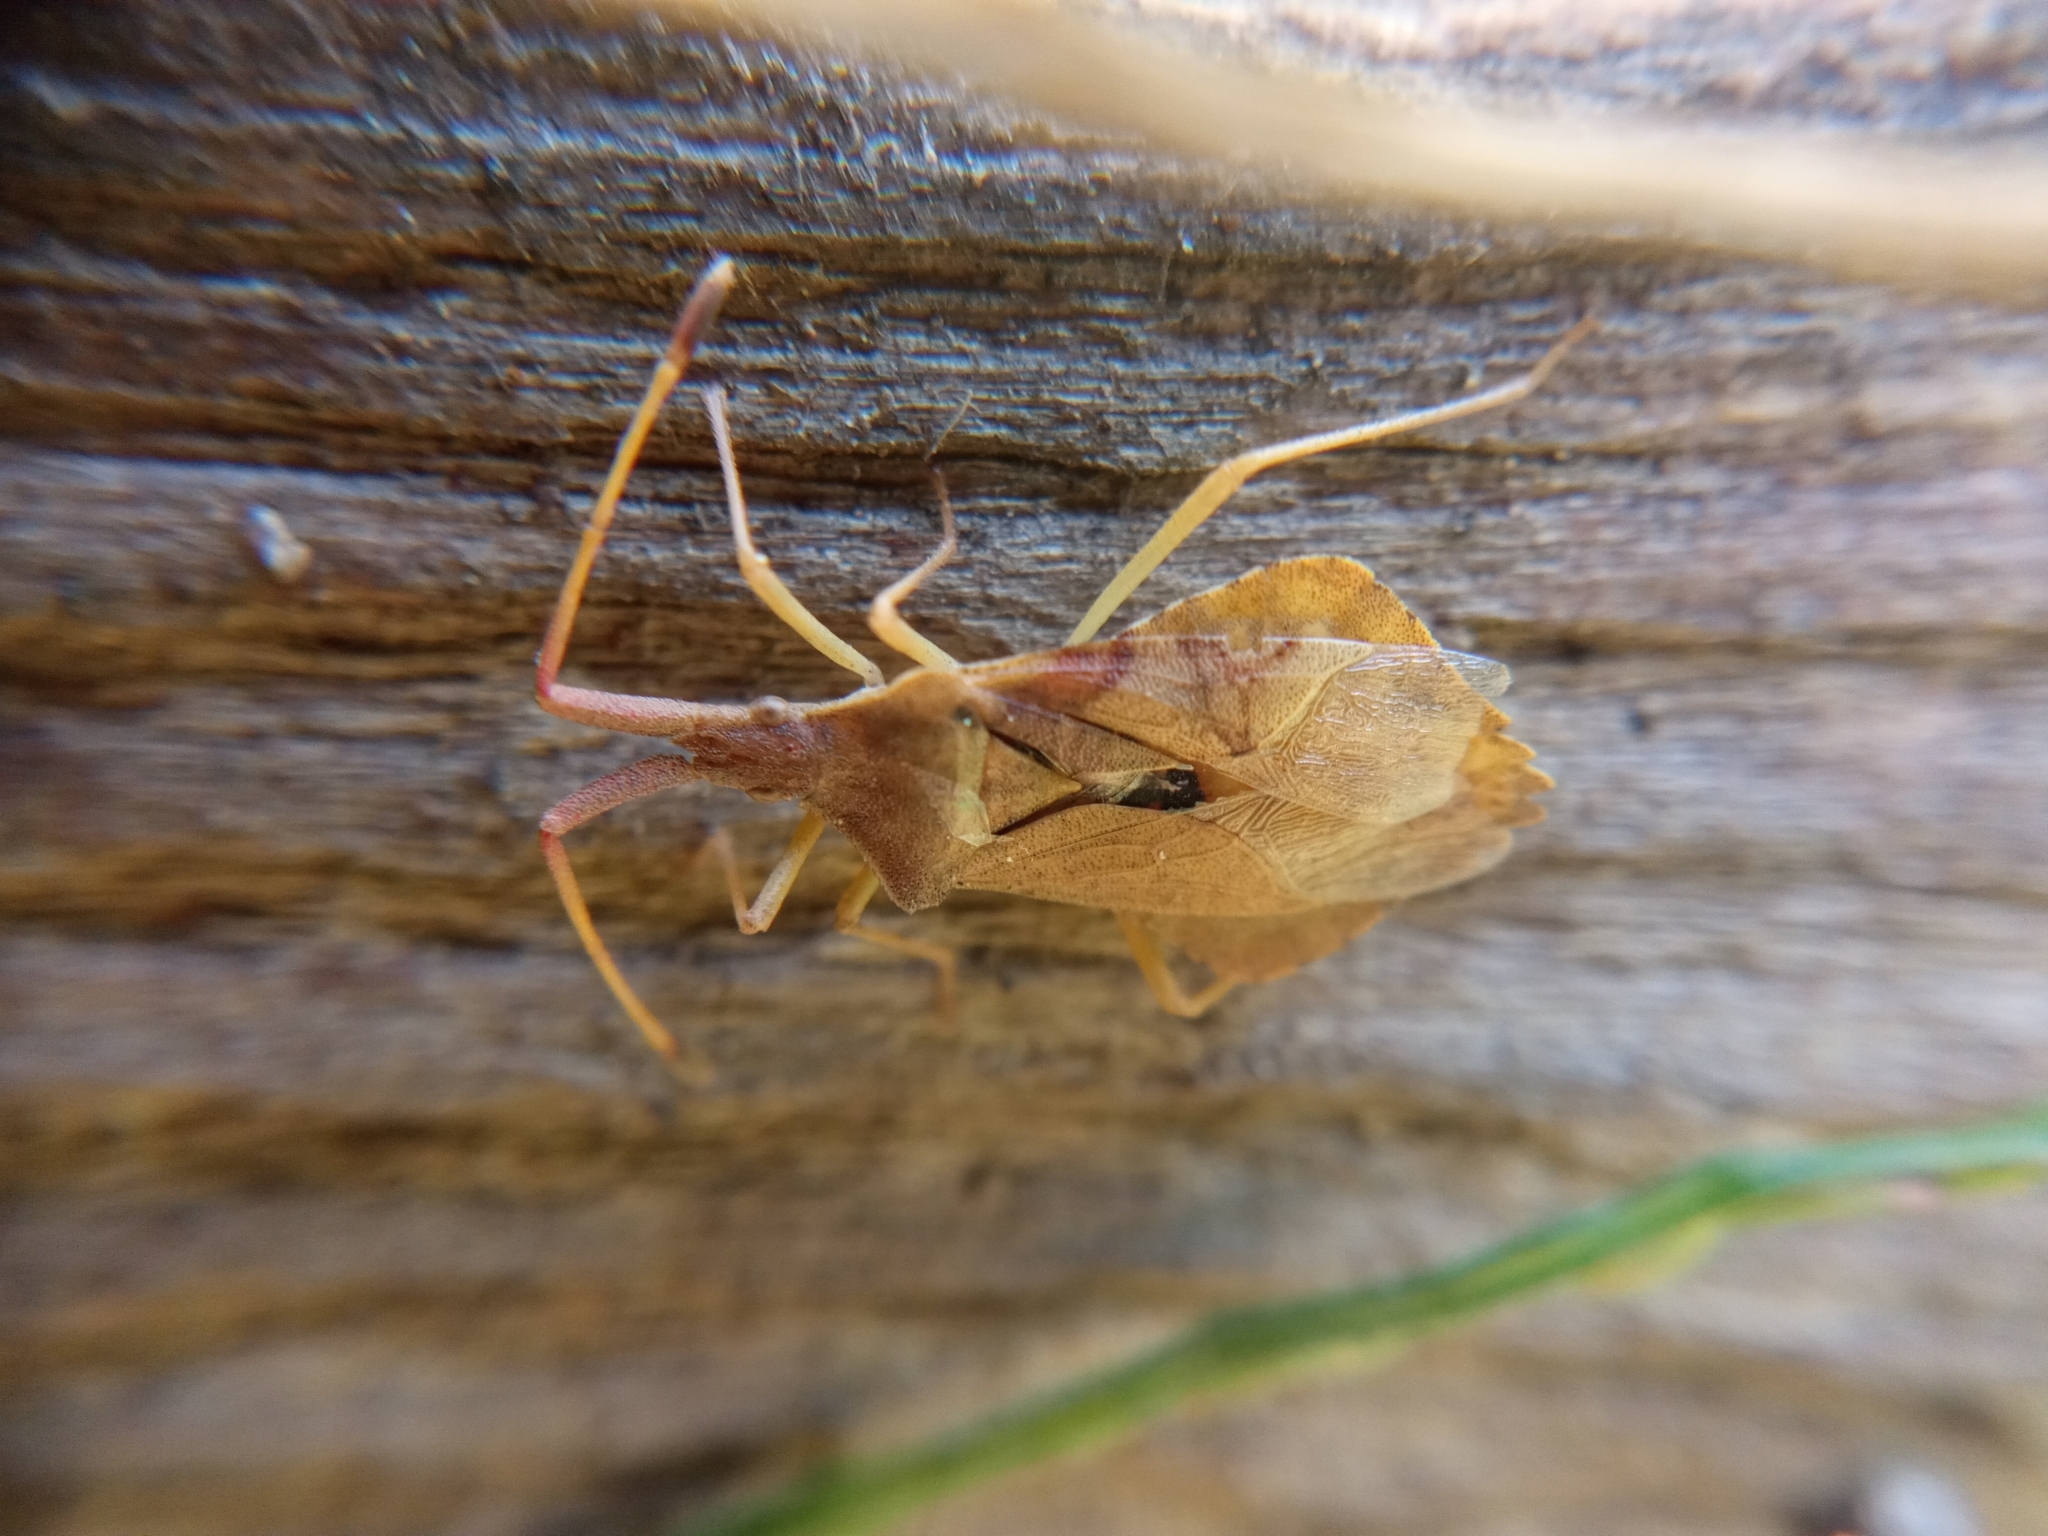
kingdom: Animalia
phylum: Arthropoda
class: Insecta
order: Hemiptera
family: Coreidae
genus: Syromastus
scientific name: Syromastus rhombeus
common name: Rhombic leatherbug
